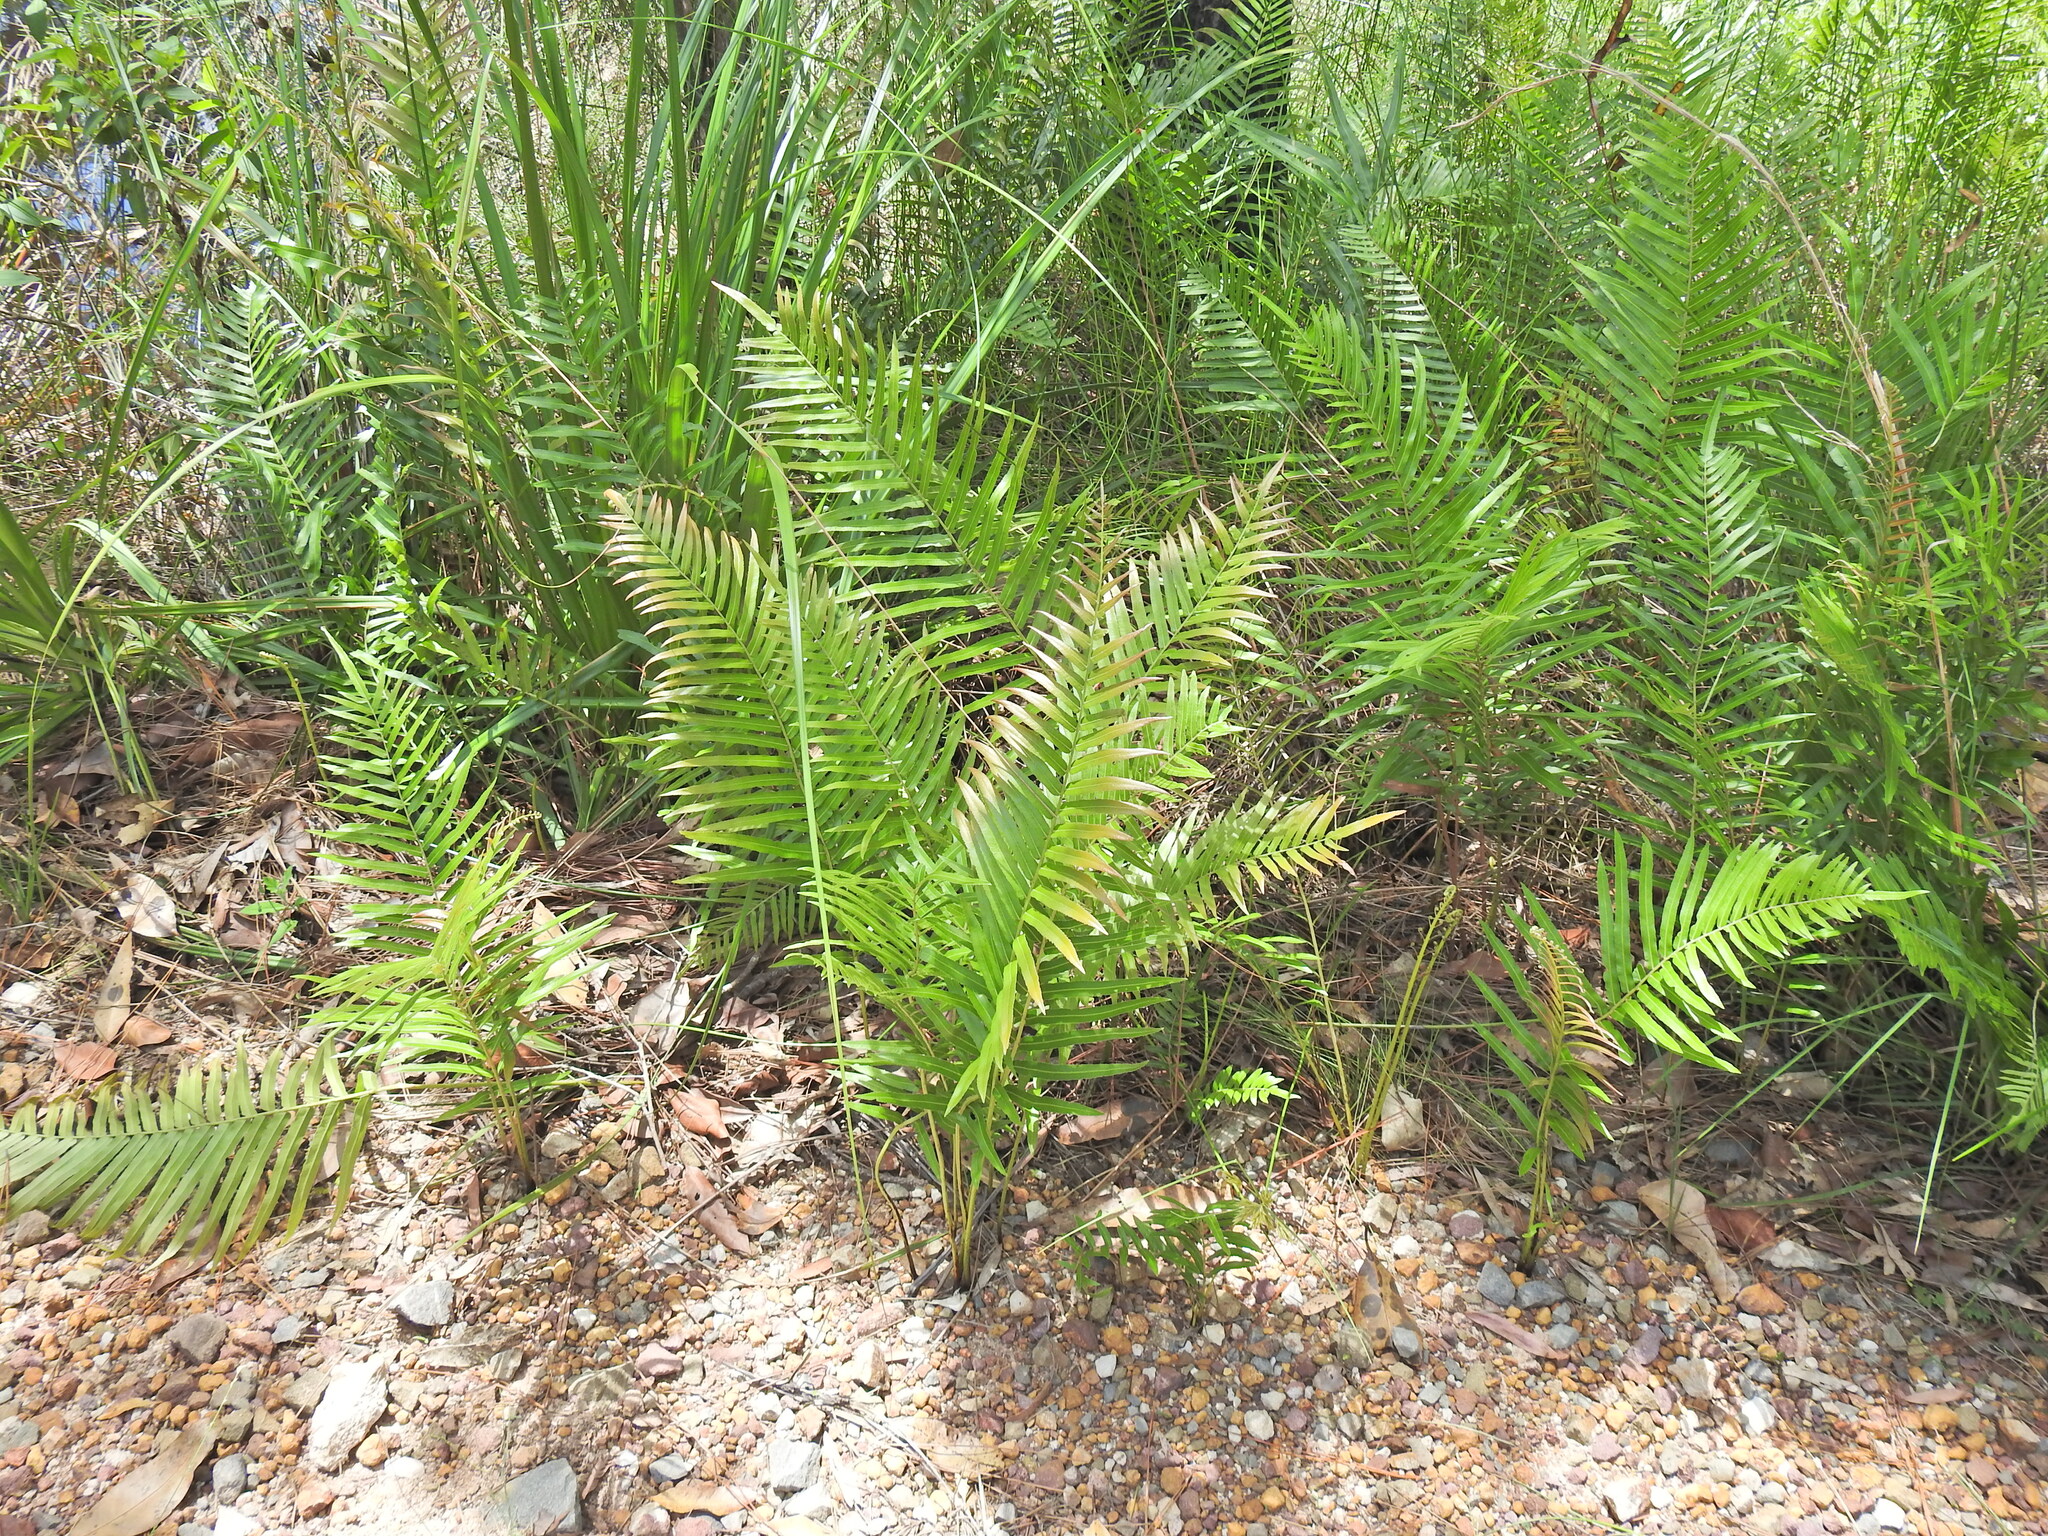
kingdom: Plantae
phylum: Tracheophyta
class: Polypodiopsida
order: Polypodiales
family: Blechnaceae
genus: Telmatoblechnum
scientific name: Telmatoblechnum indicum
